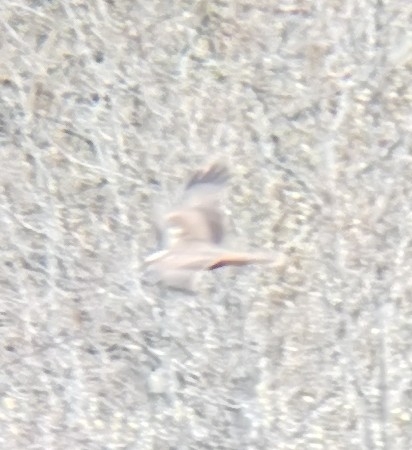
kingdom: Animalia
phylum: Chordata
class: Aves
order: Accipitriformes
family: Accipitridae
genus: Circus
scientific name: Circus aeruginosus
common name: Western marsh harrier
